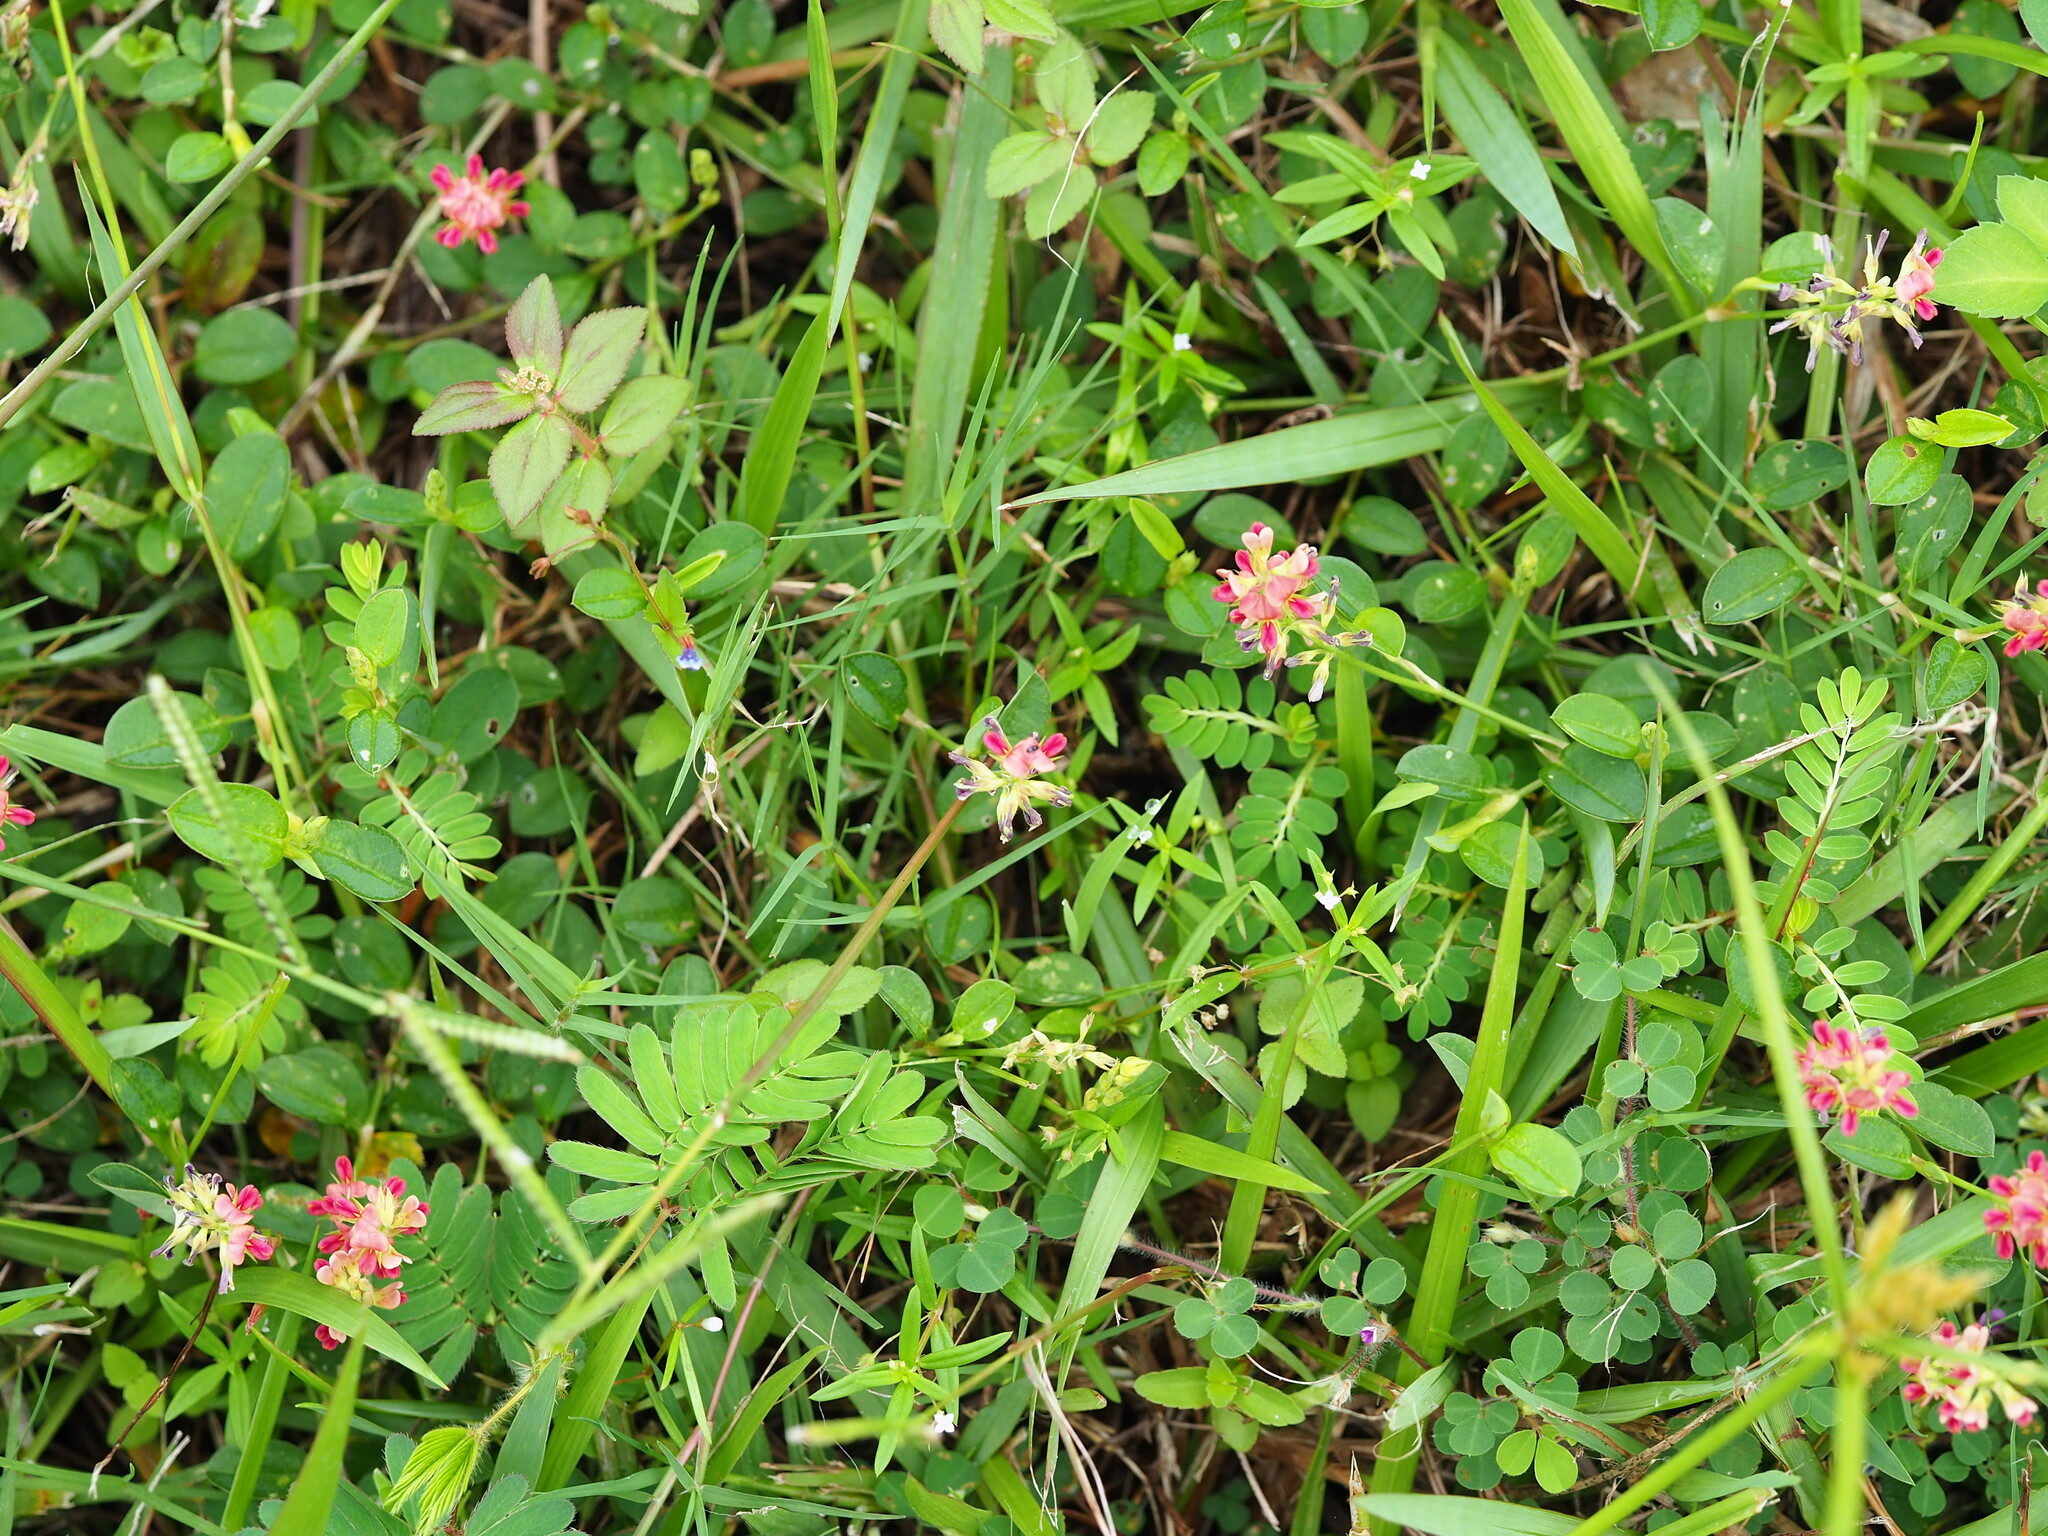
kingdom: Plantae
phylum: Tracheophyta
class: Magnoliopsida
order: Fabales
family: Fabaceae
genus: Alysicarpus
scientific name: Alysicarpus vaginalis
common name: White moneywort
